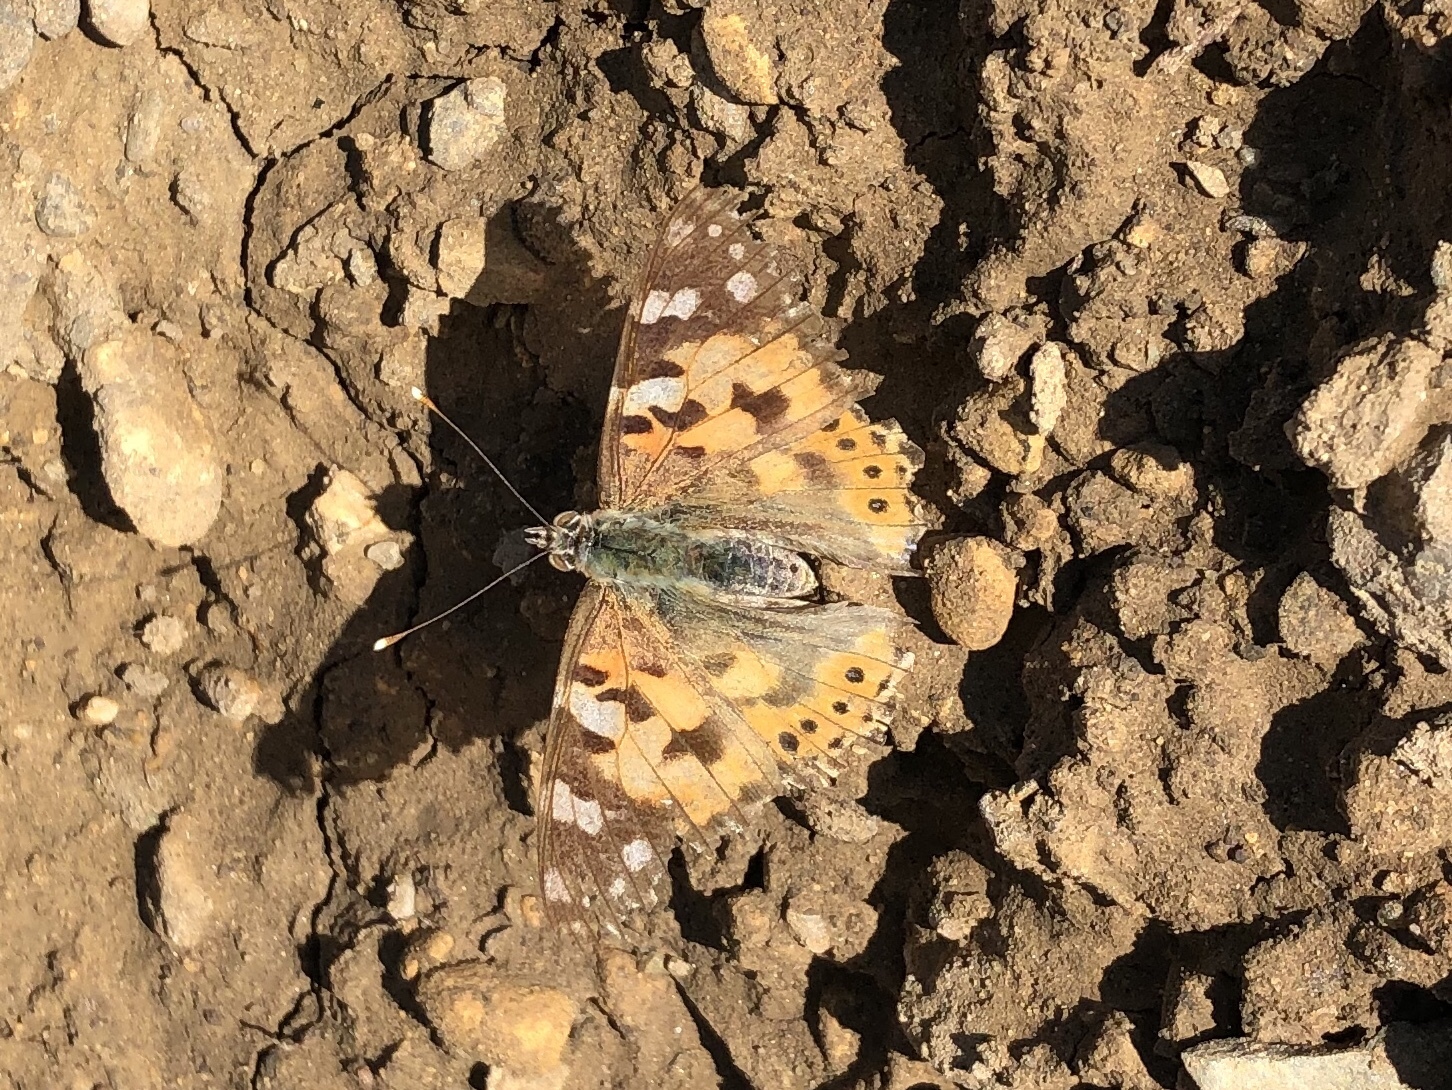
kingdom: Animalia
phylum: Arthropoda
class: Insecta
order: Lepidoptera
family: Nymphalidae
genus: Vanessa
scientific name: Vanessa cardui
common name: Painted lady
